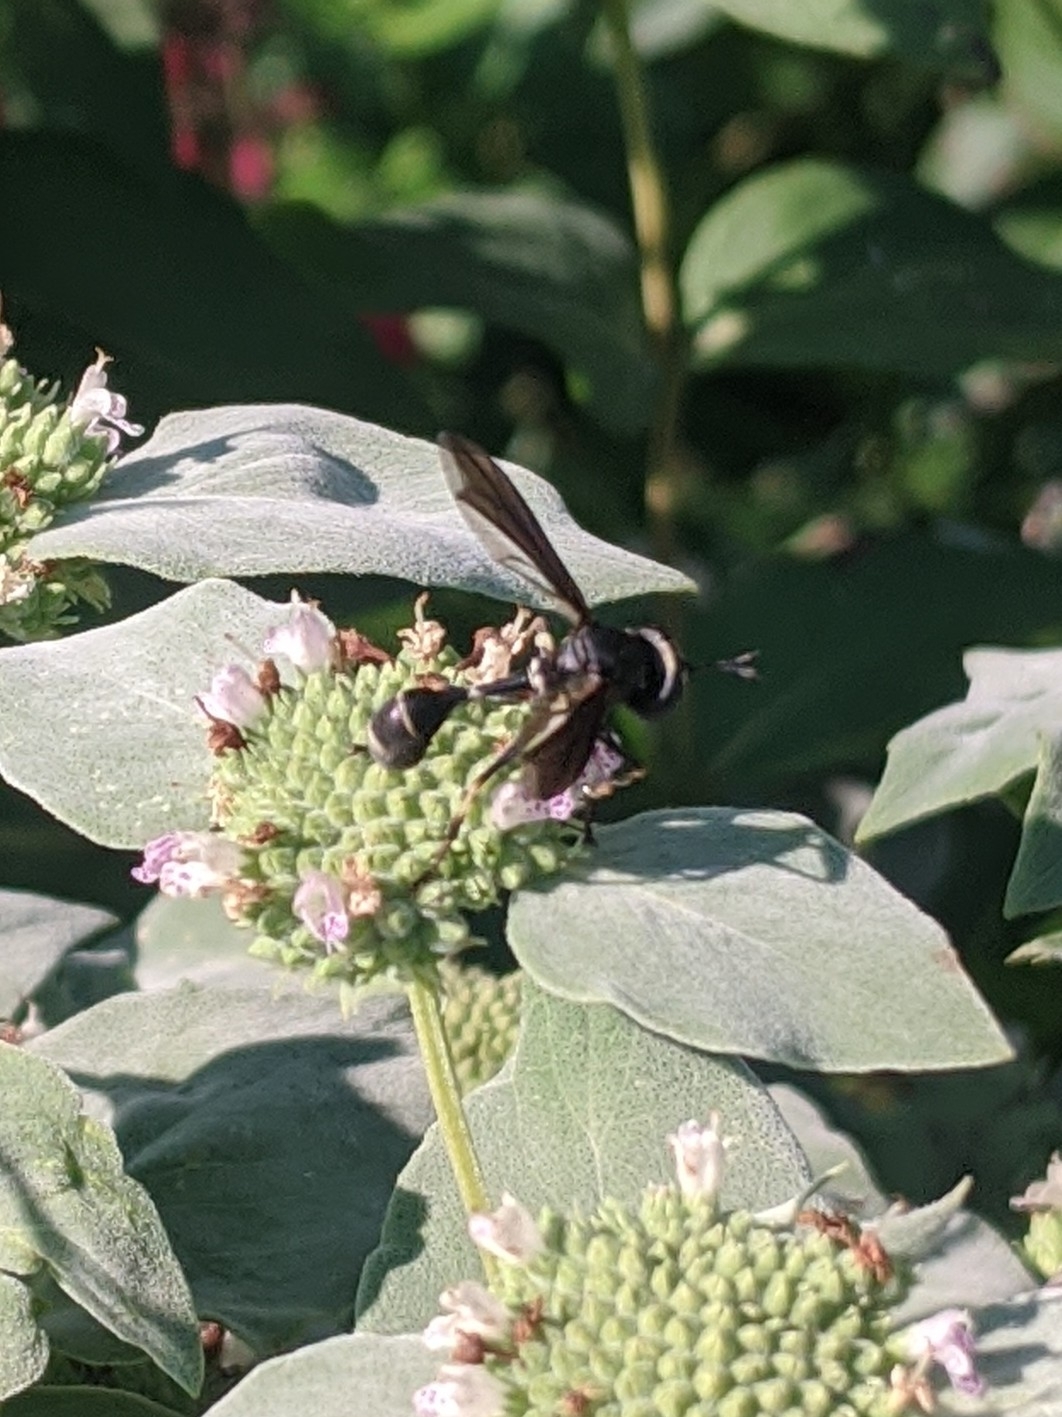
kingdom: Animalia
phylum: Arthropoda
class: Insecta
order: Diptera
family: Conopidae
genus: Physocephala
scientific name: Physocephala tibialis
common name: Common eastern physocephala
